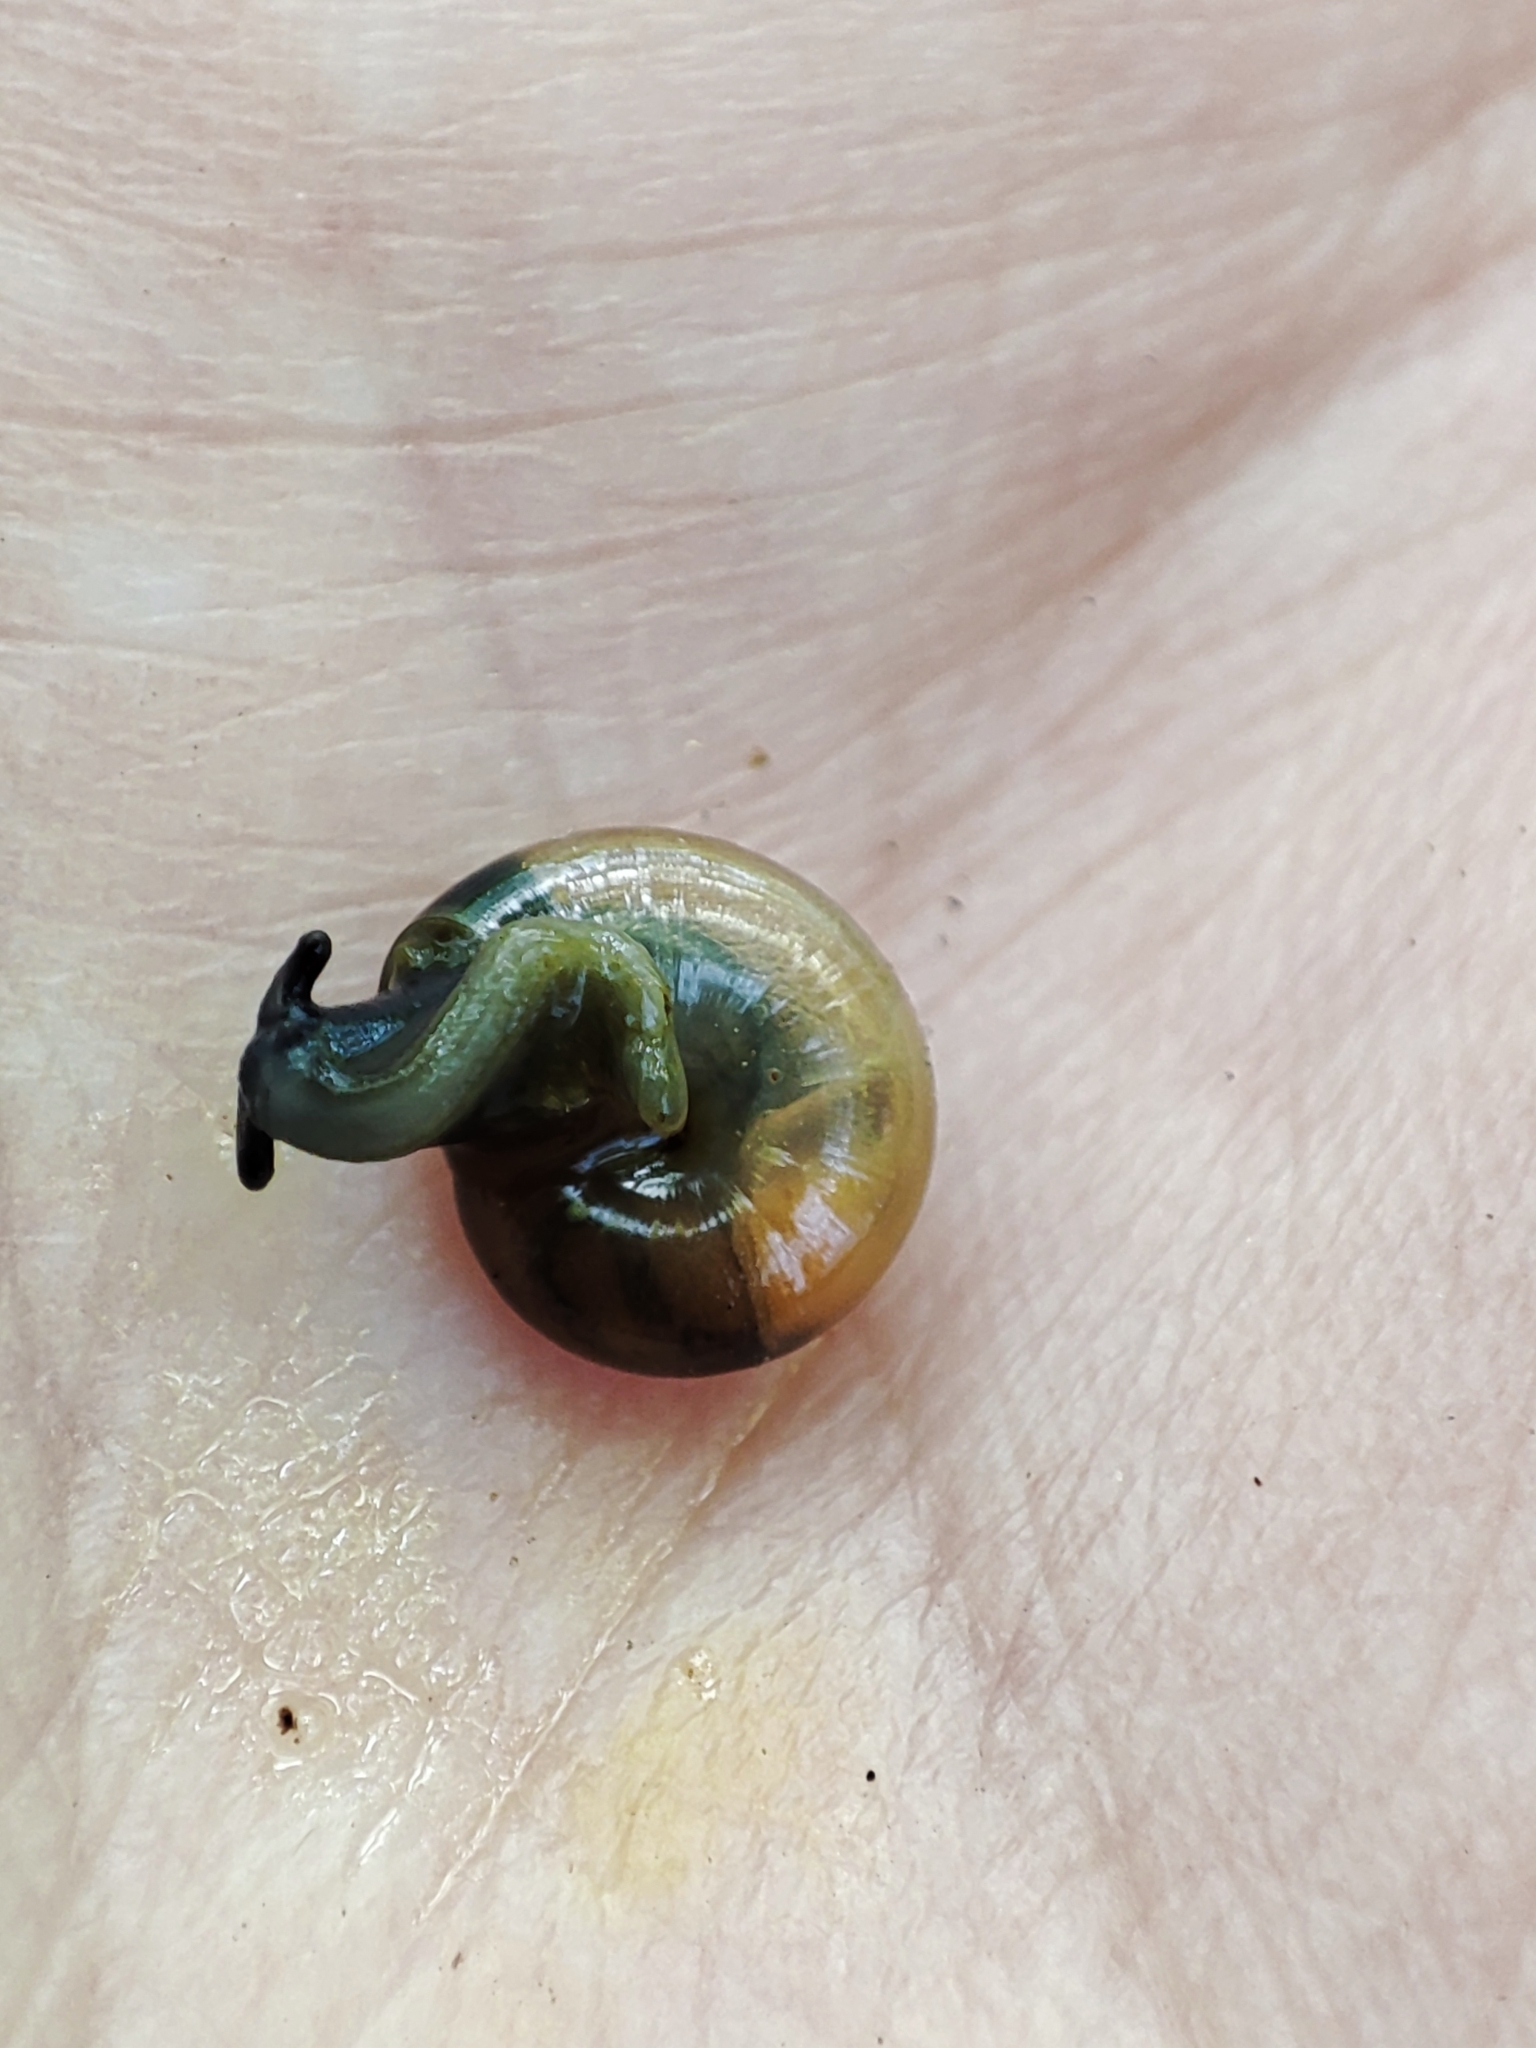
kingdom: Animalia
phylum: Mollusca
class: Gastropoda
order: Stylommatophora
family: Oxychilidae
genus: Oxychilus
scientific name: Oxychilus translucidus
